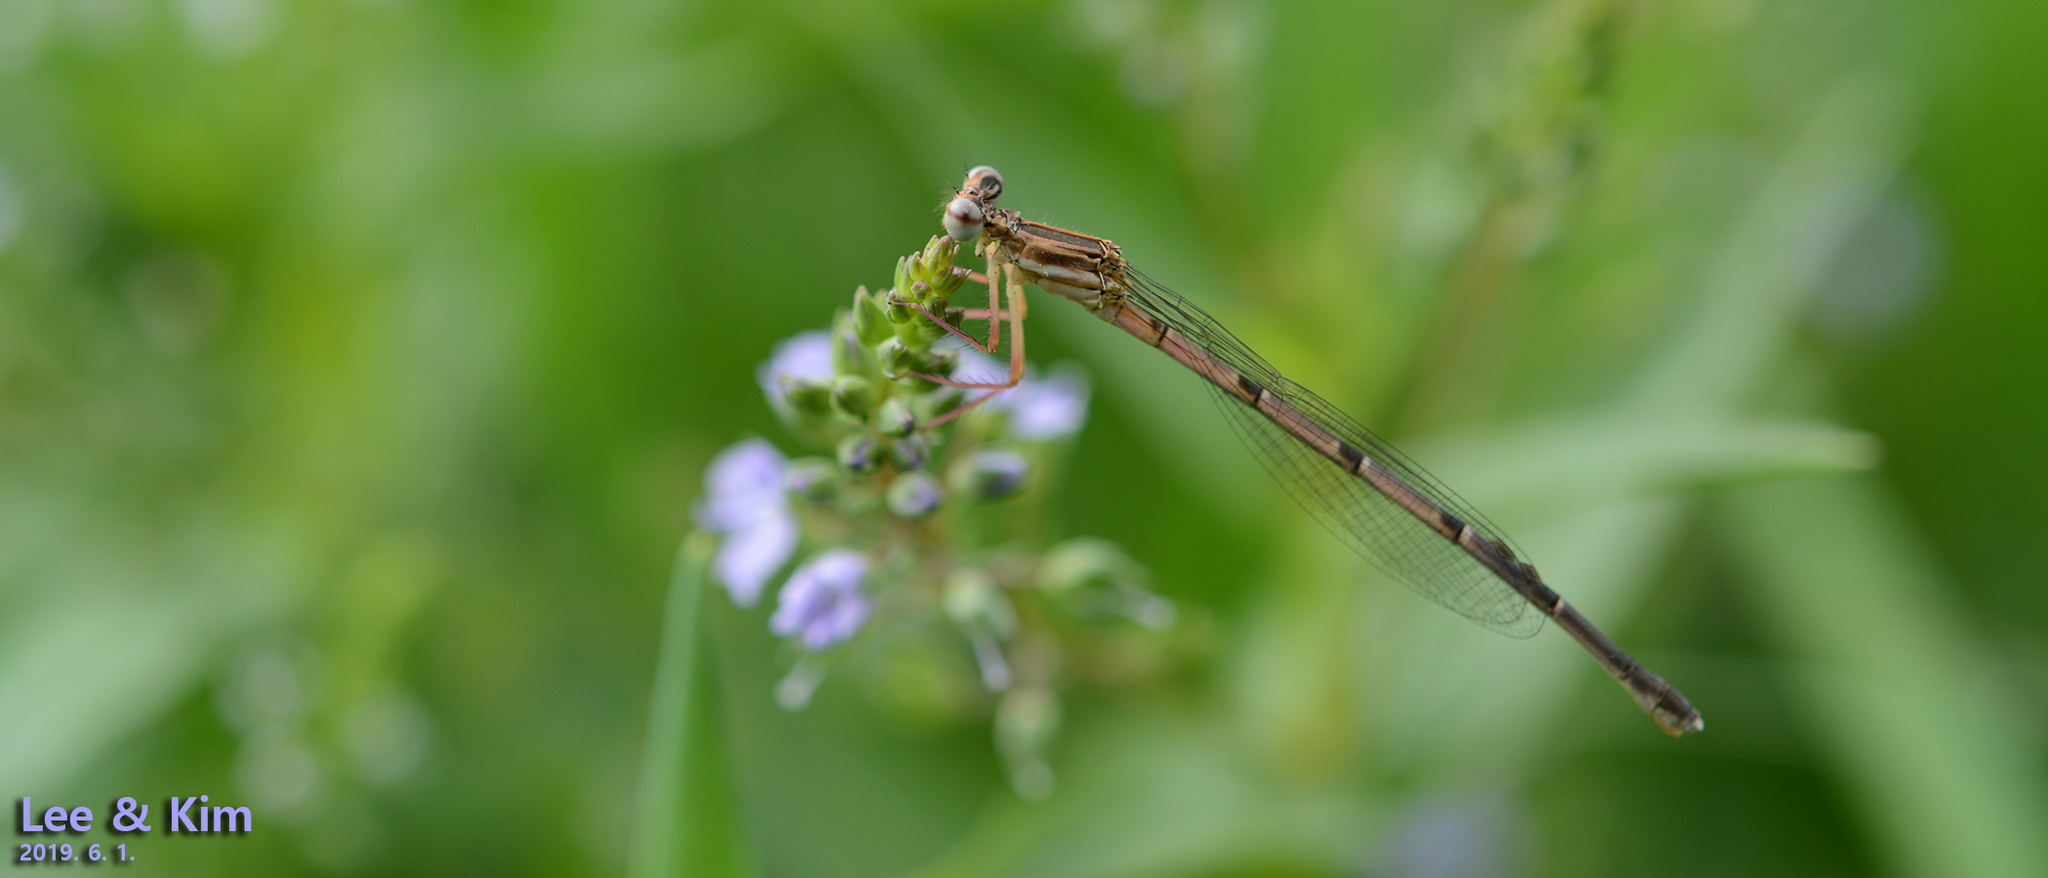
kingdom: Animalia
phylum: Arthropoda
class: Insecta
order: Odonata
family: Platycnemididae
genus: Platycnemis
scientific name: Platycnemis phyllopoda
